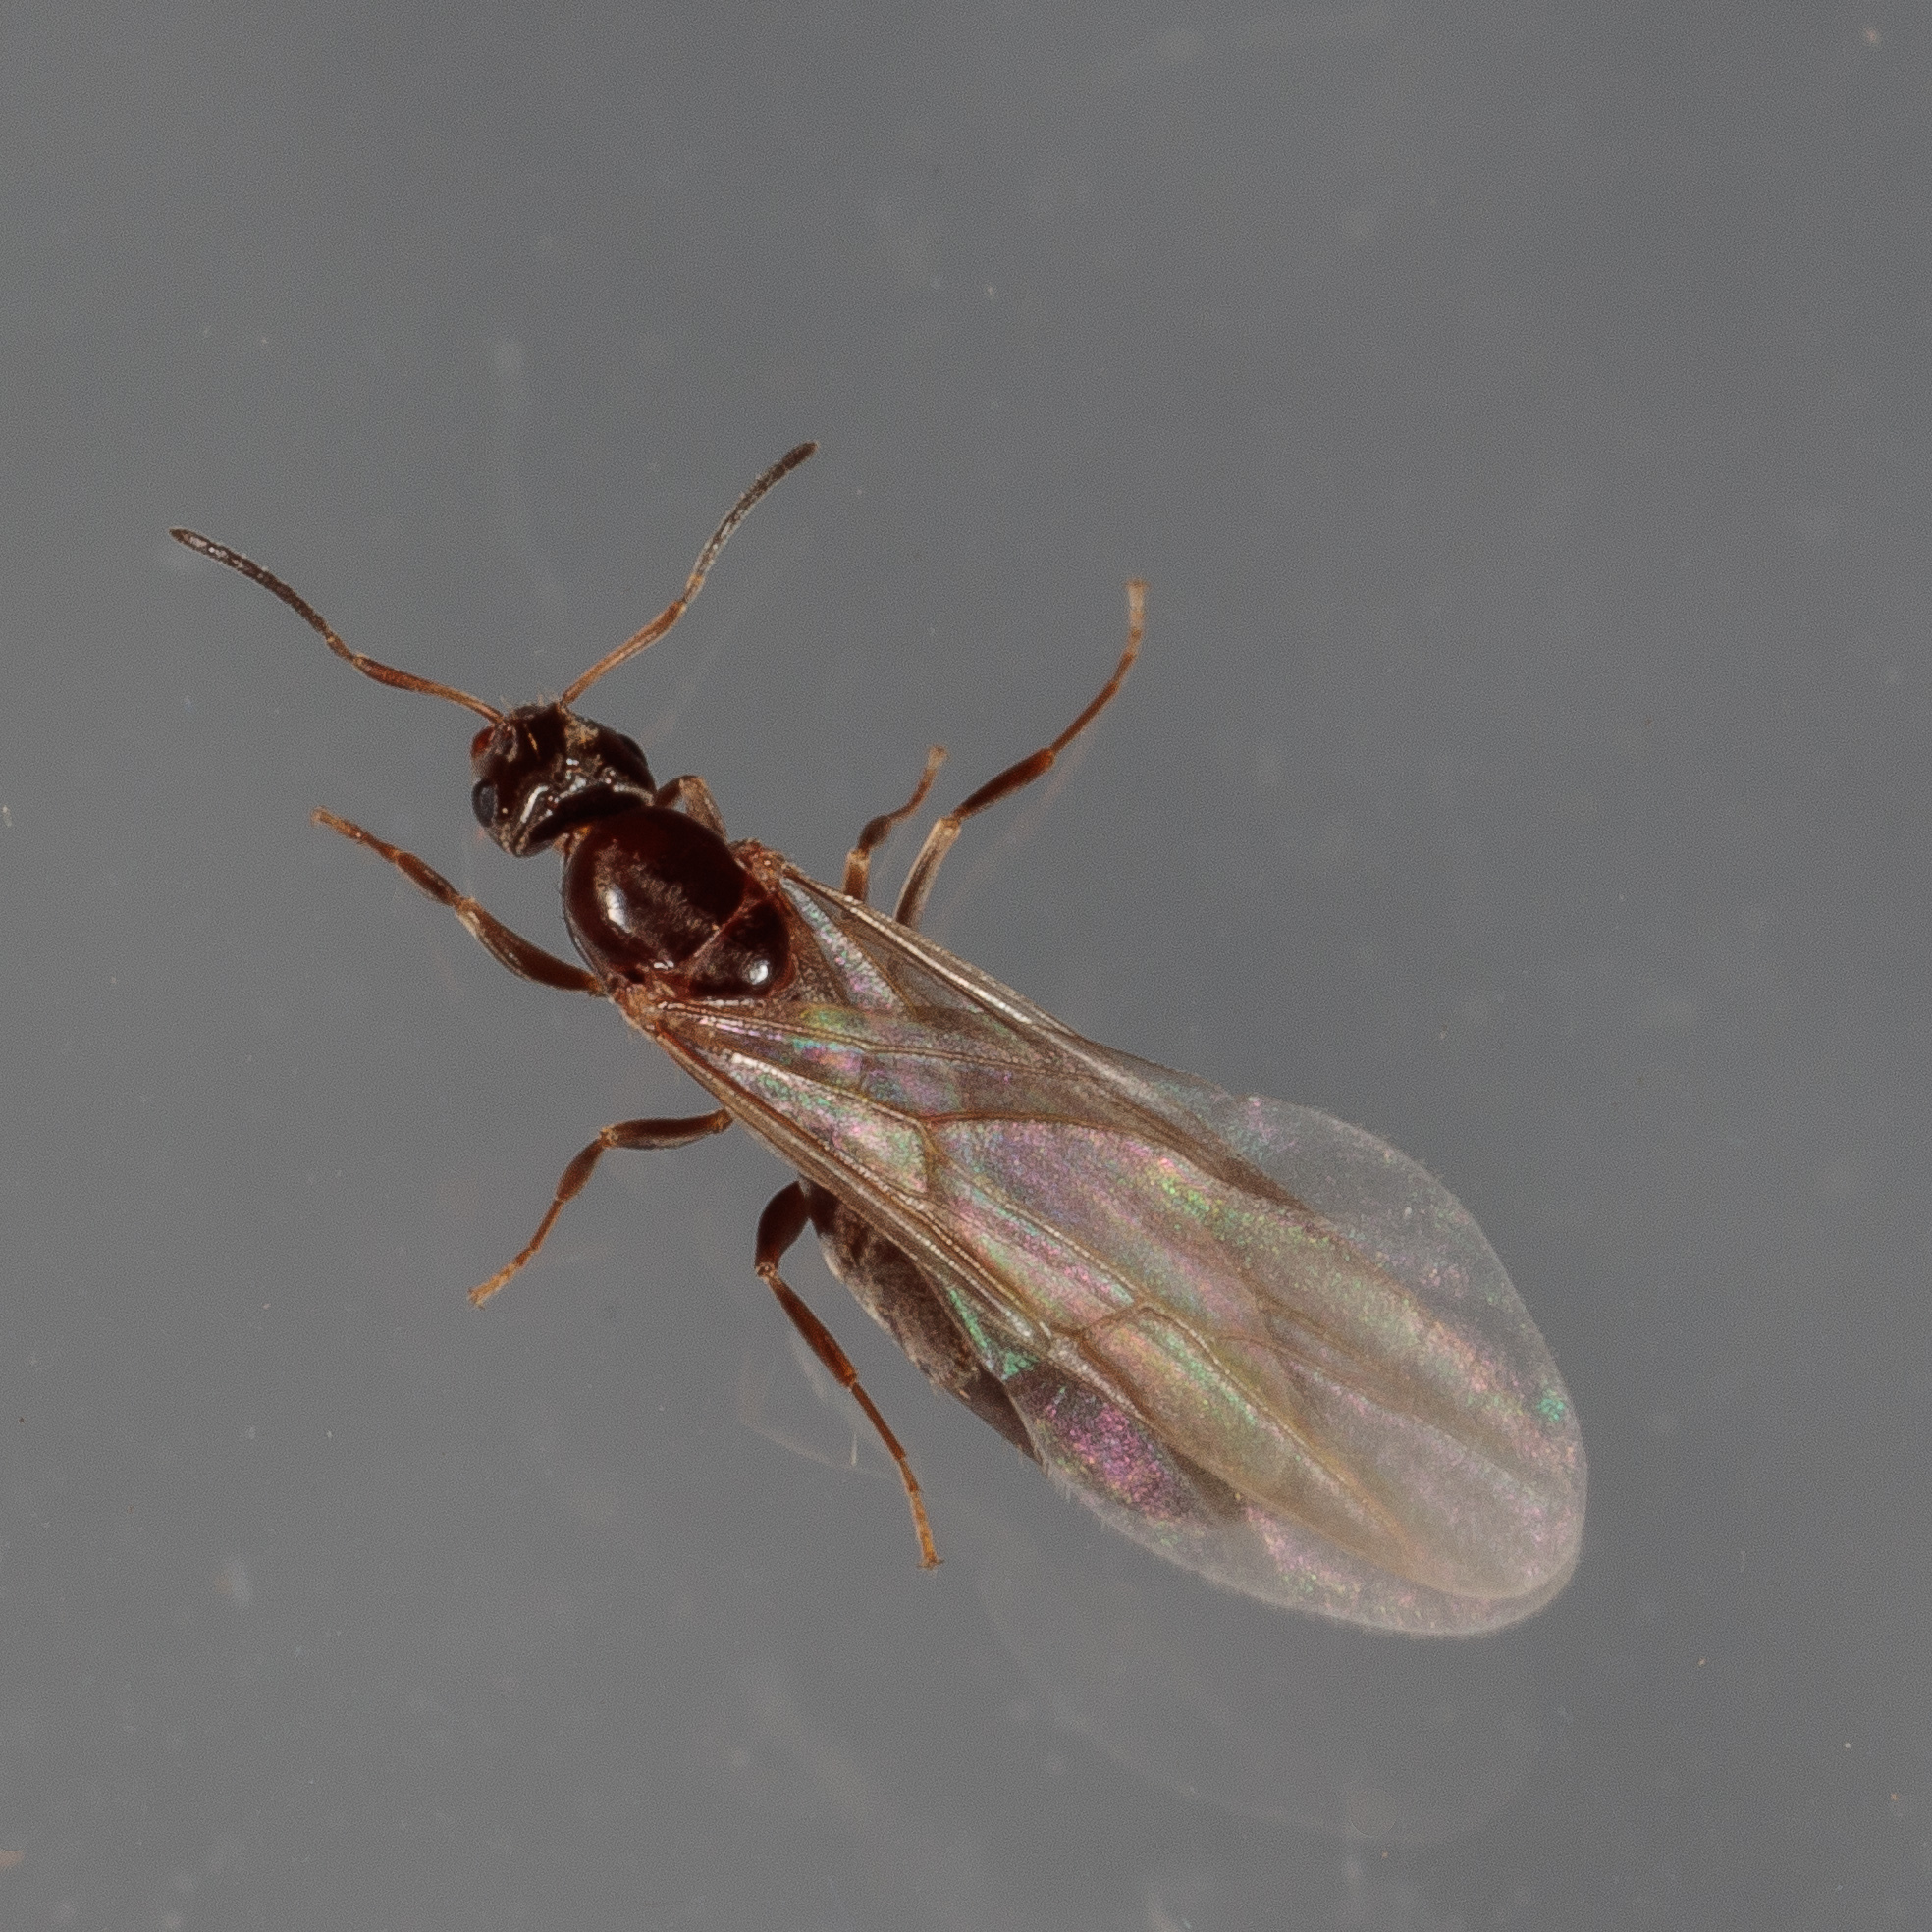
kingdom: Animalia
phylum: Arthropoda
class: Insecta
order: Hymenoptera
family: Formicidae
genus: Brachymyrmex
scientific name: Brachymyrmex patagonicus
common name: Dark rover ant
